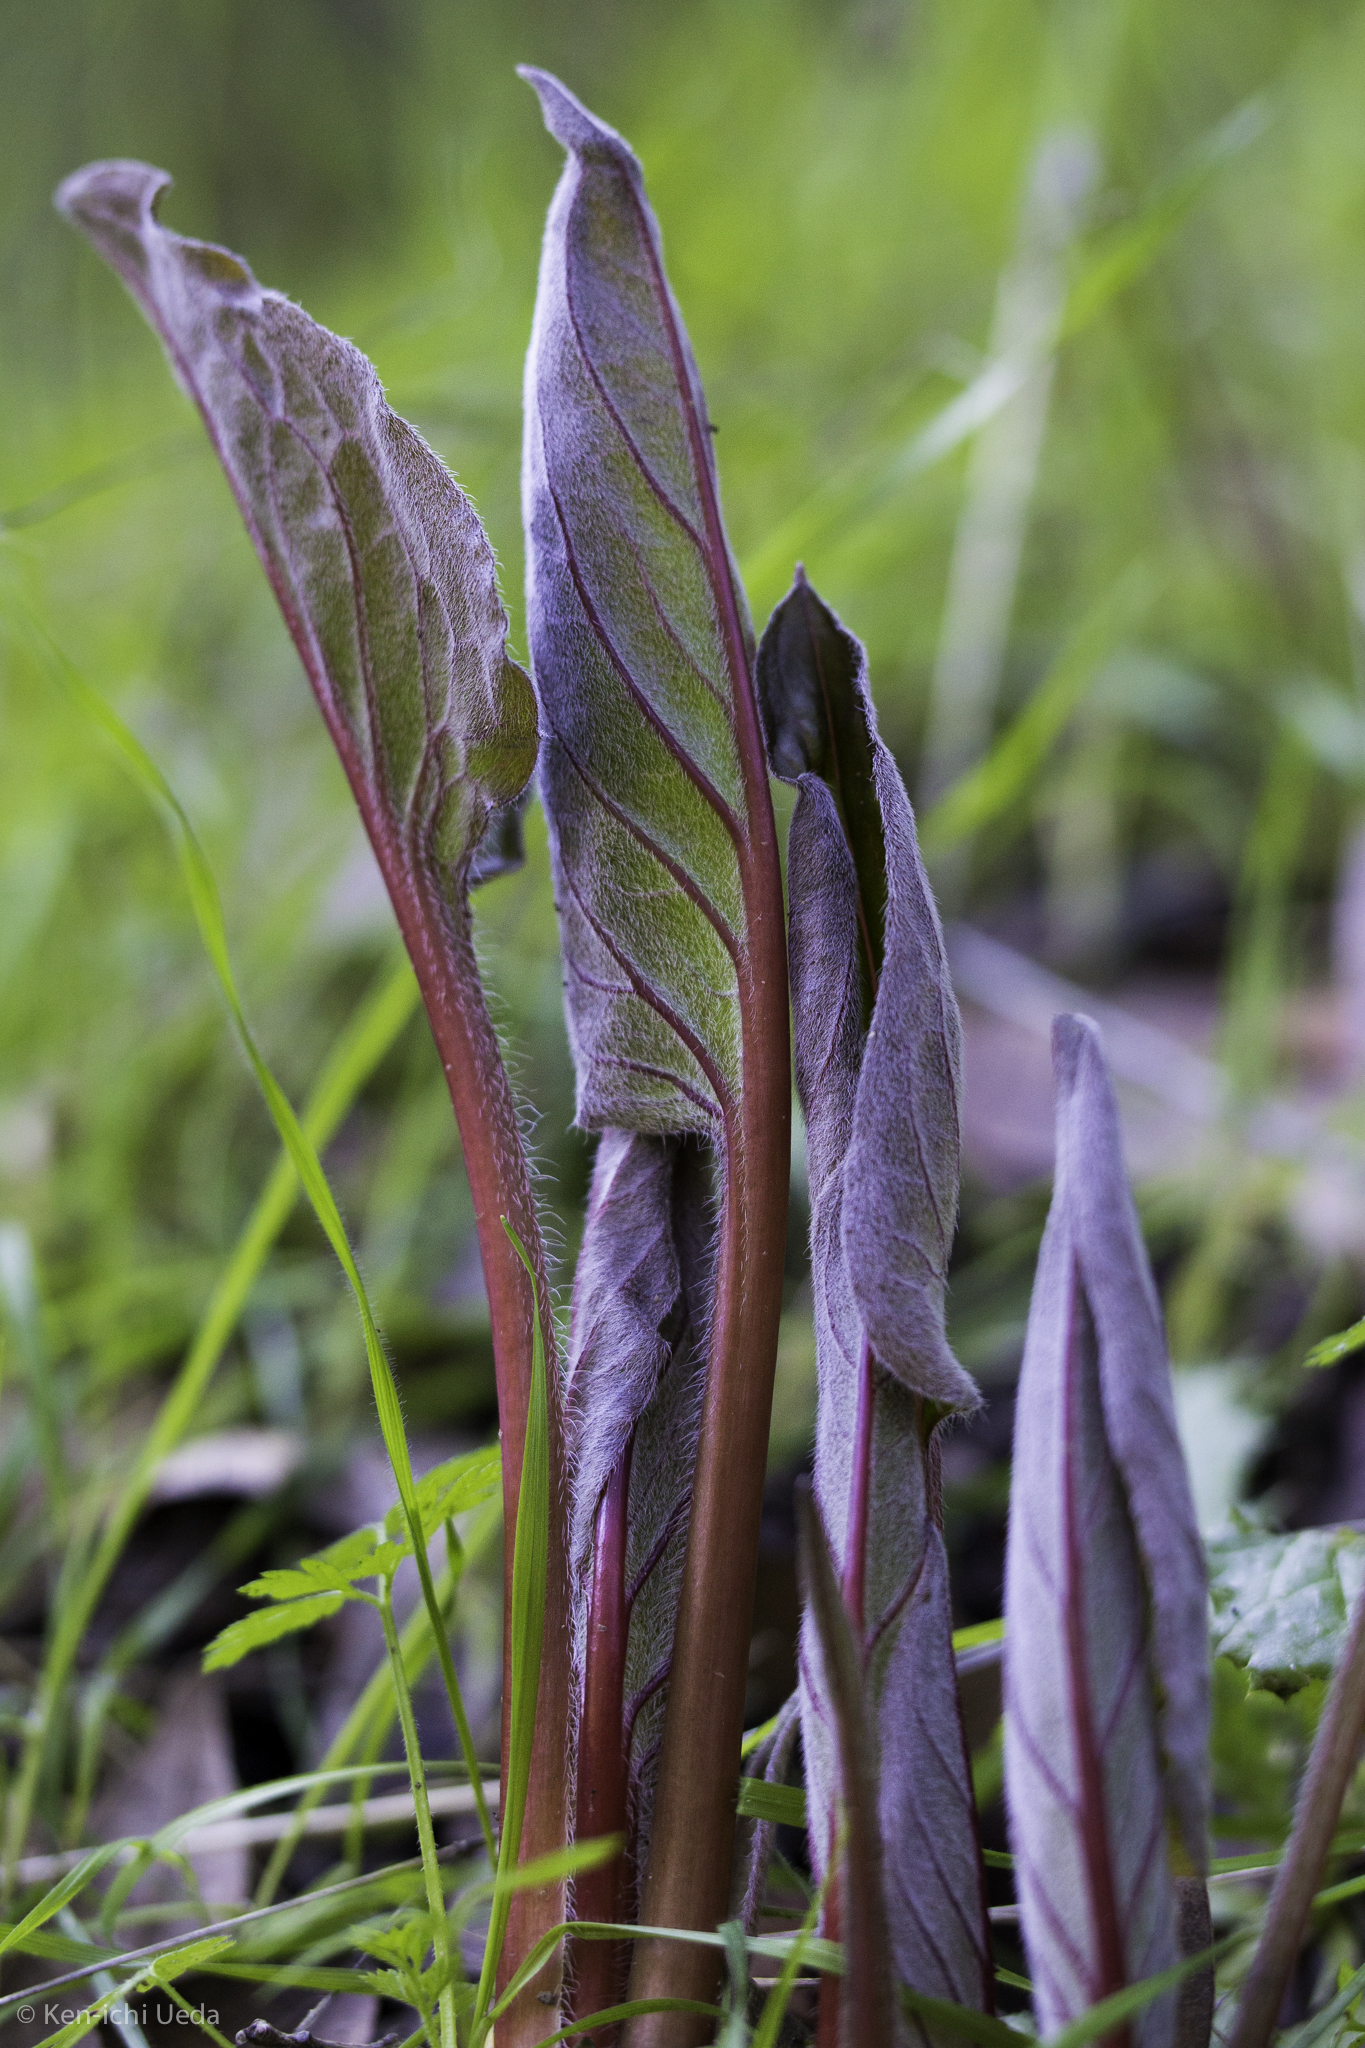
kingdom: Plantae
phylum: Tracheophyta
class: Magnoliopsida
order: Boraginales
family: Boraginaceae
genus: Adelinia
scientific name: Adelinia grande
